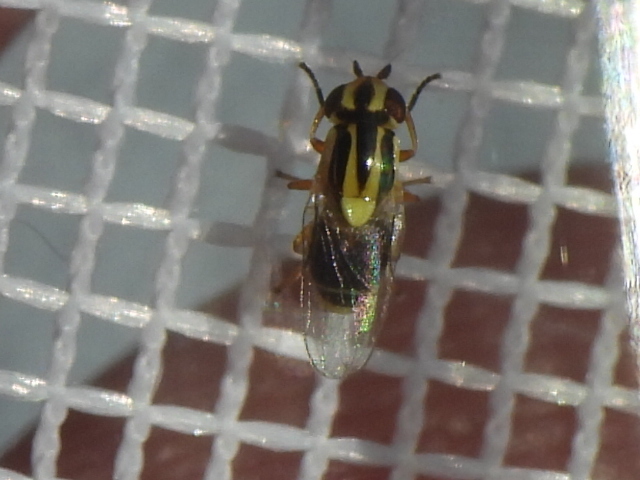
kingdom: Animalia
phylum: Arthropoda
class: Insecta
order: Diptera
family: Chloropidae
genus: Thaumatomyia
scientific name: Thaumatomyia glabra
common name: Chloropid fly
